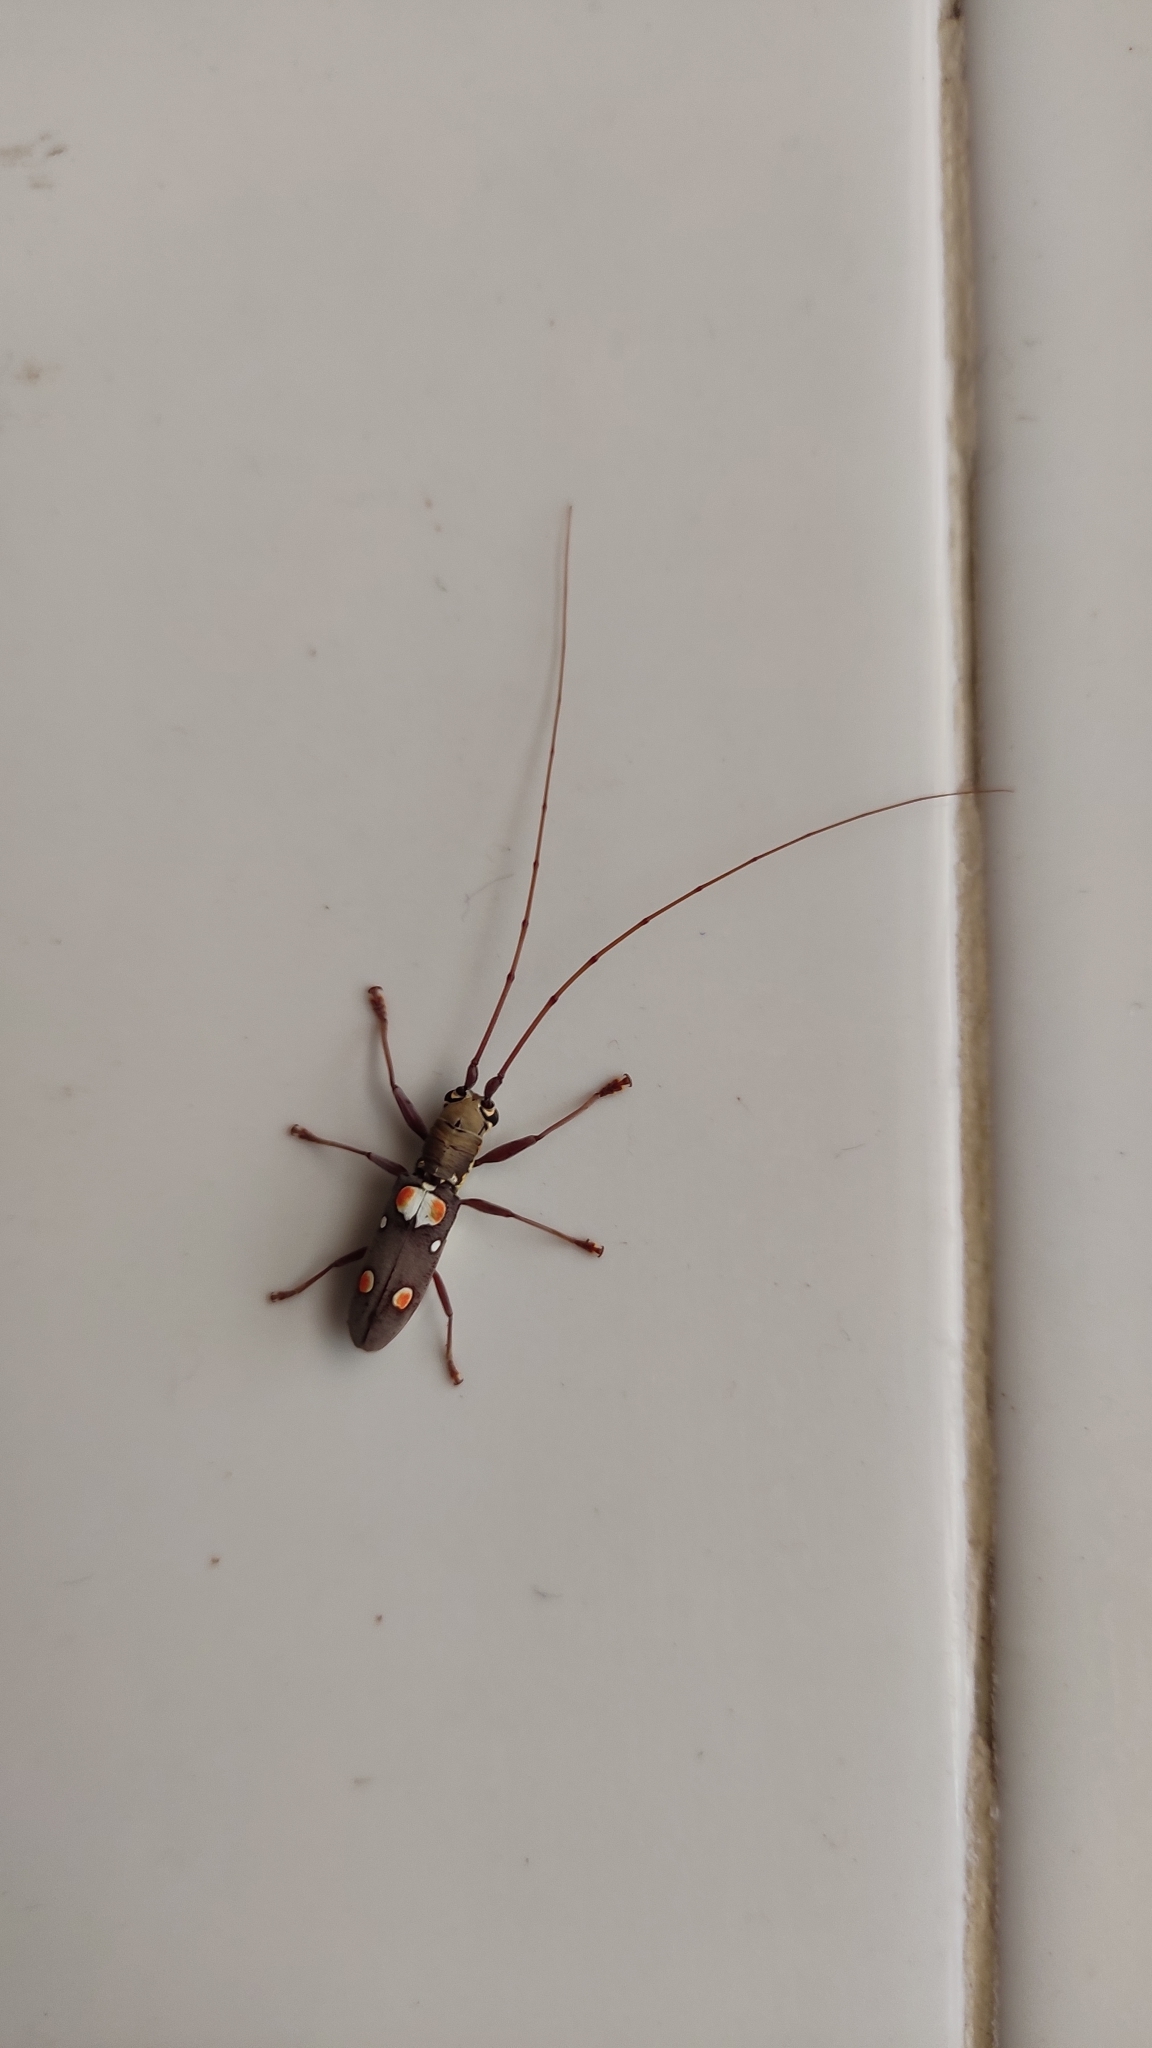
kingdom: Animalia
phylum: Arthropoda
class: Insecta
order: Coleoptera
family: Cerambycidae
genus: Olenecamptus
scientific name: Olenecamptus bilobus
